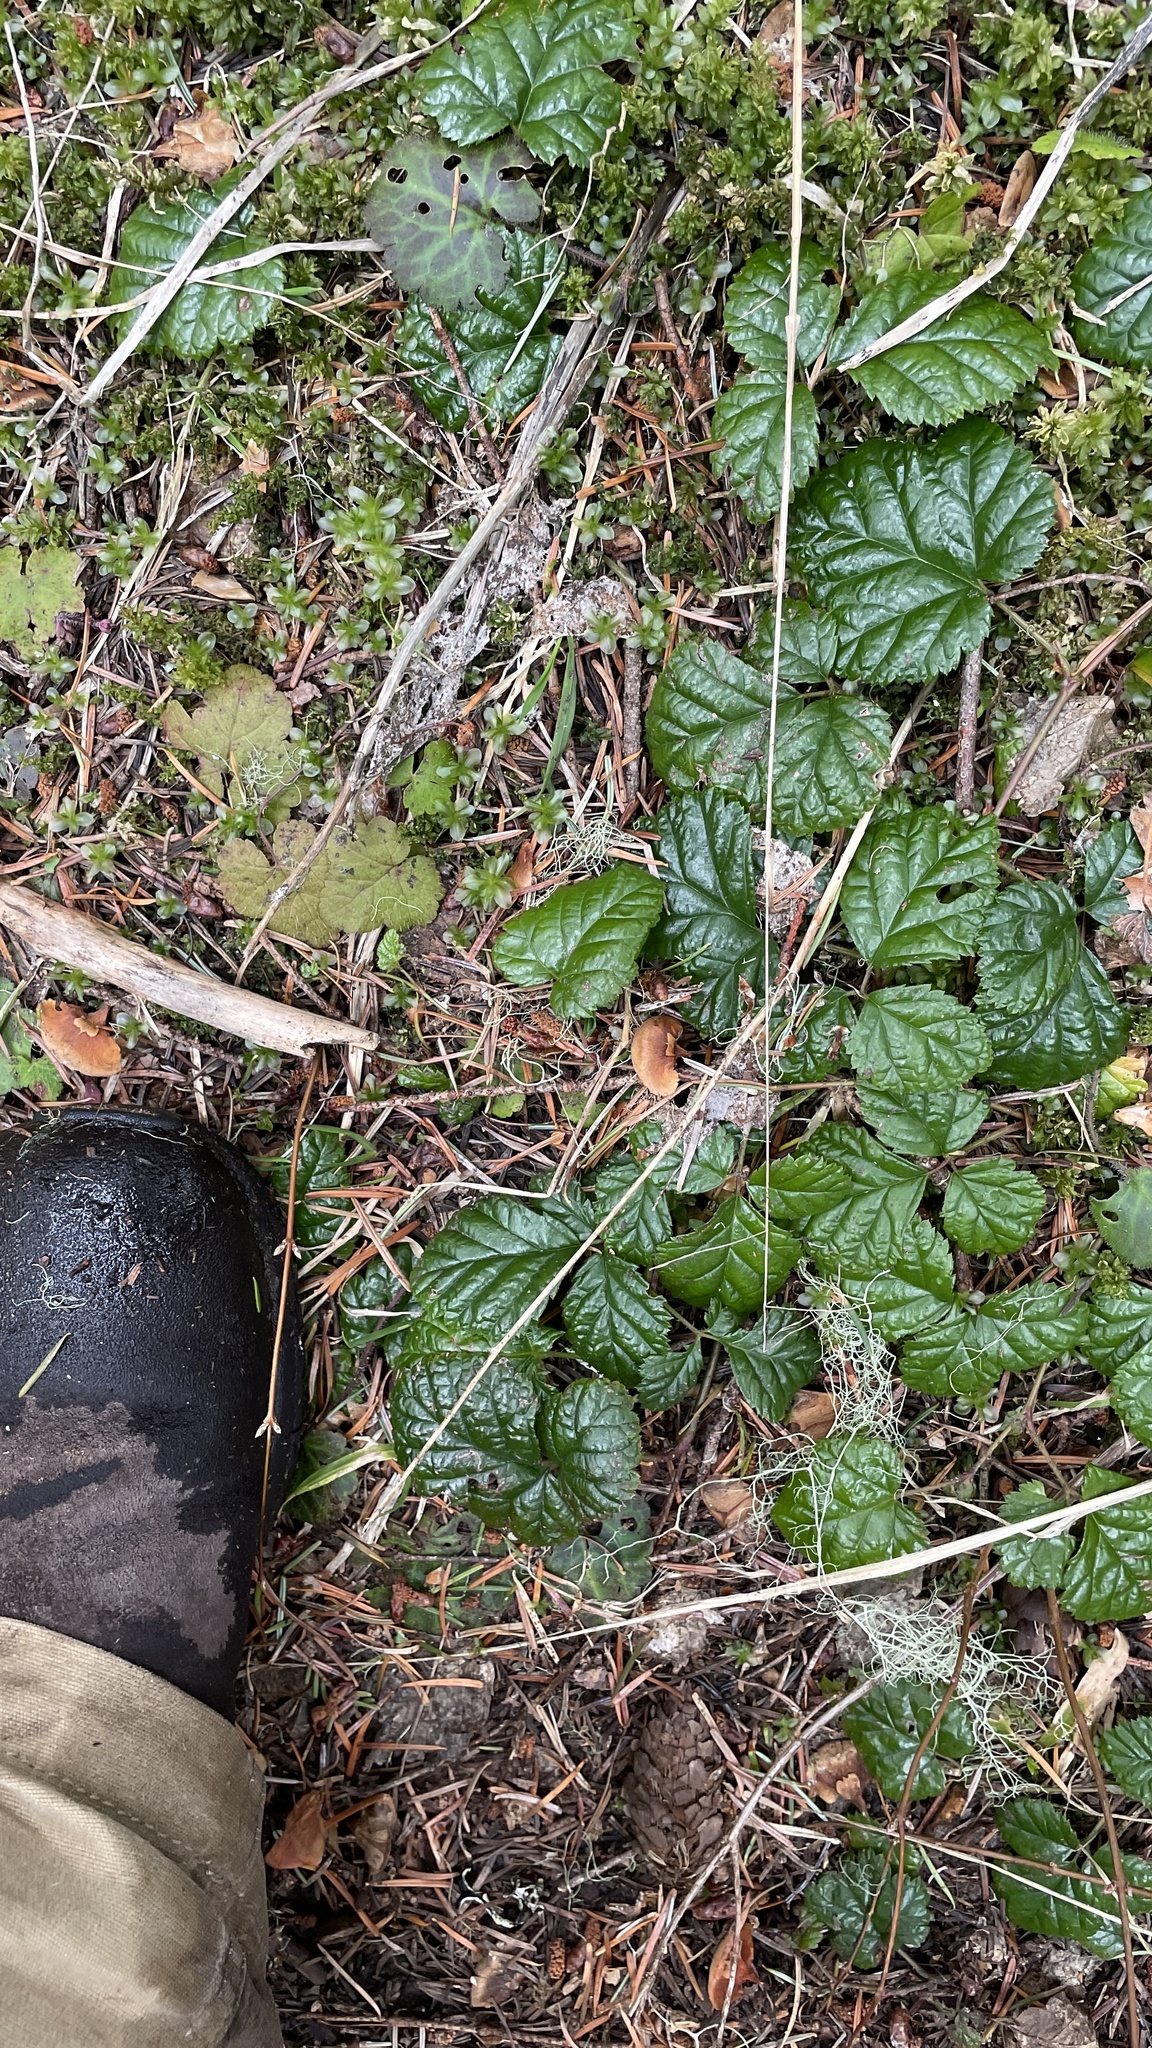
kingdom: Plantae
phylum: Tracheophyta
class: Magnoliopsida
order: Rosales
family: Rosaceae
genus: Rubus
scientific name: Rubus nivalis
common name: Dwarf snow bramble
